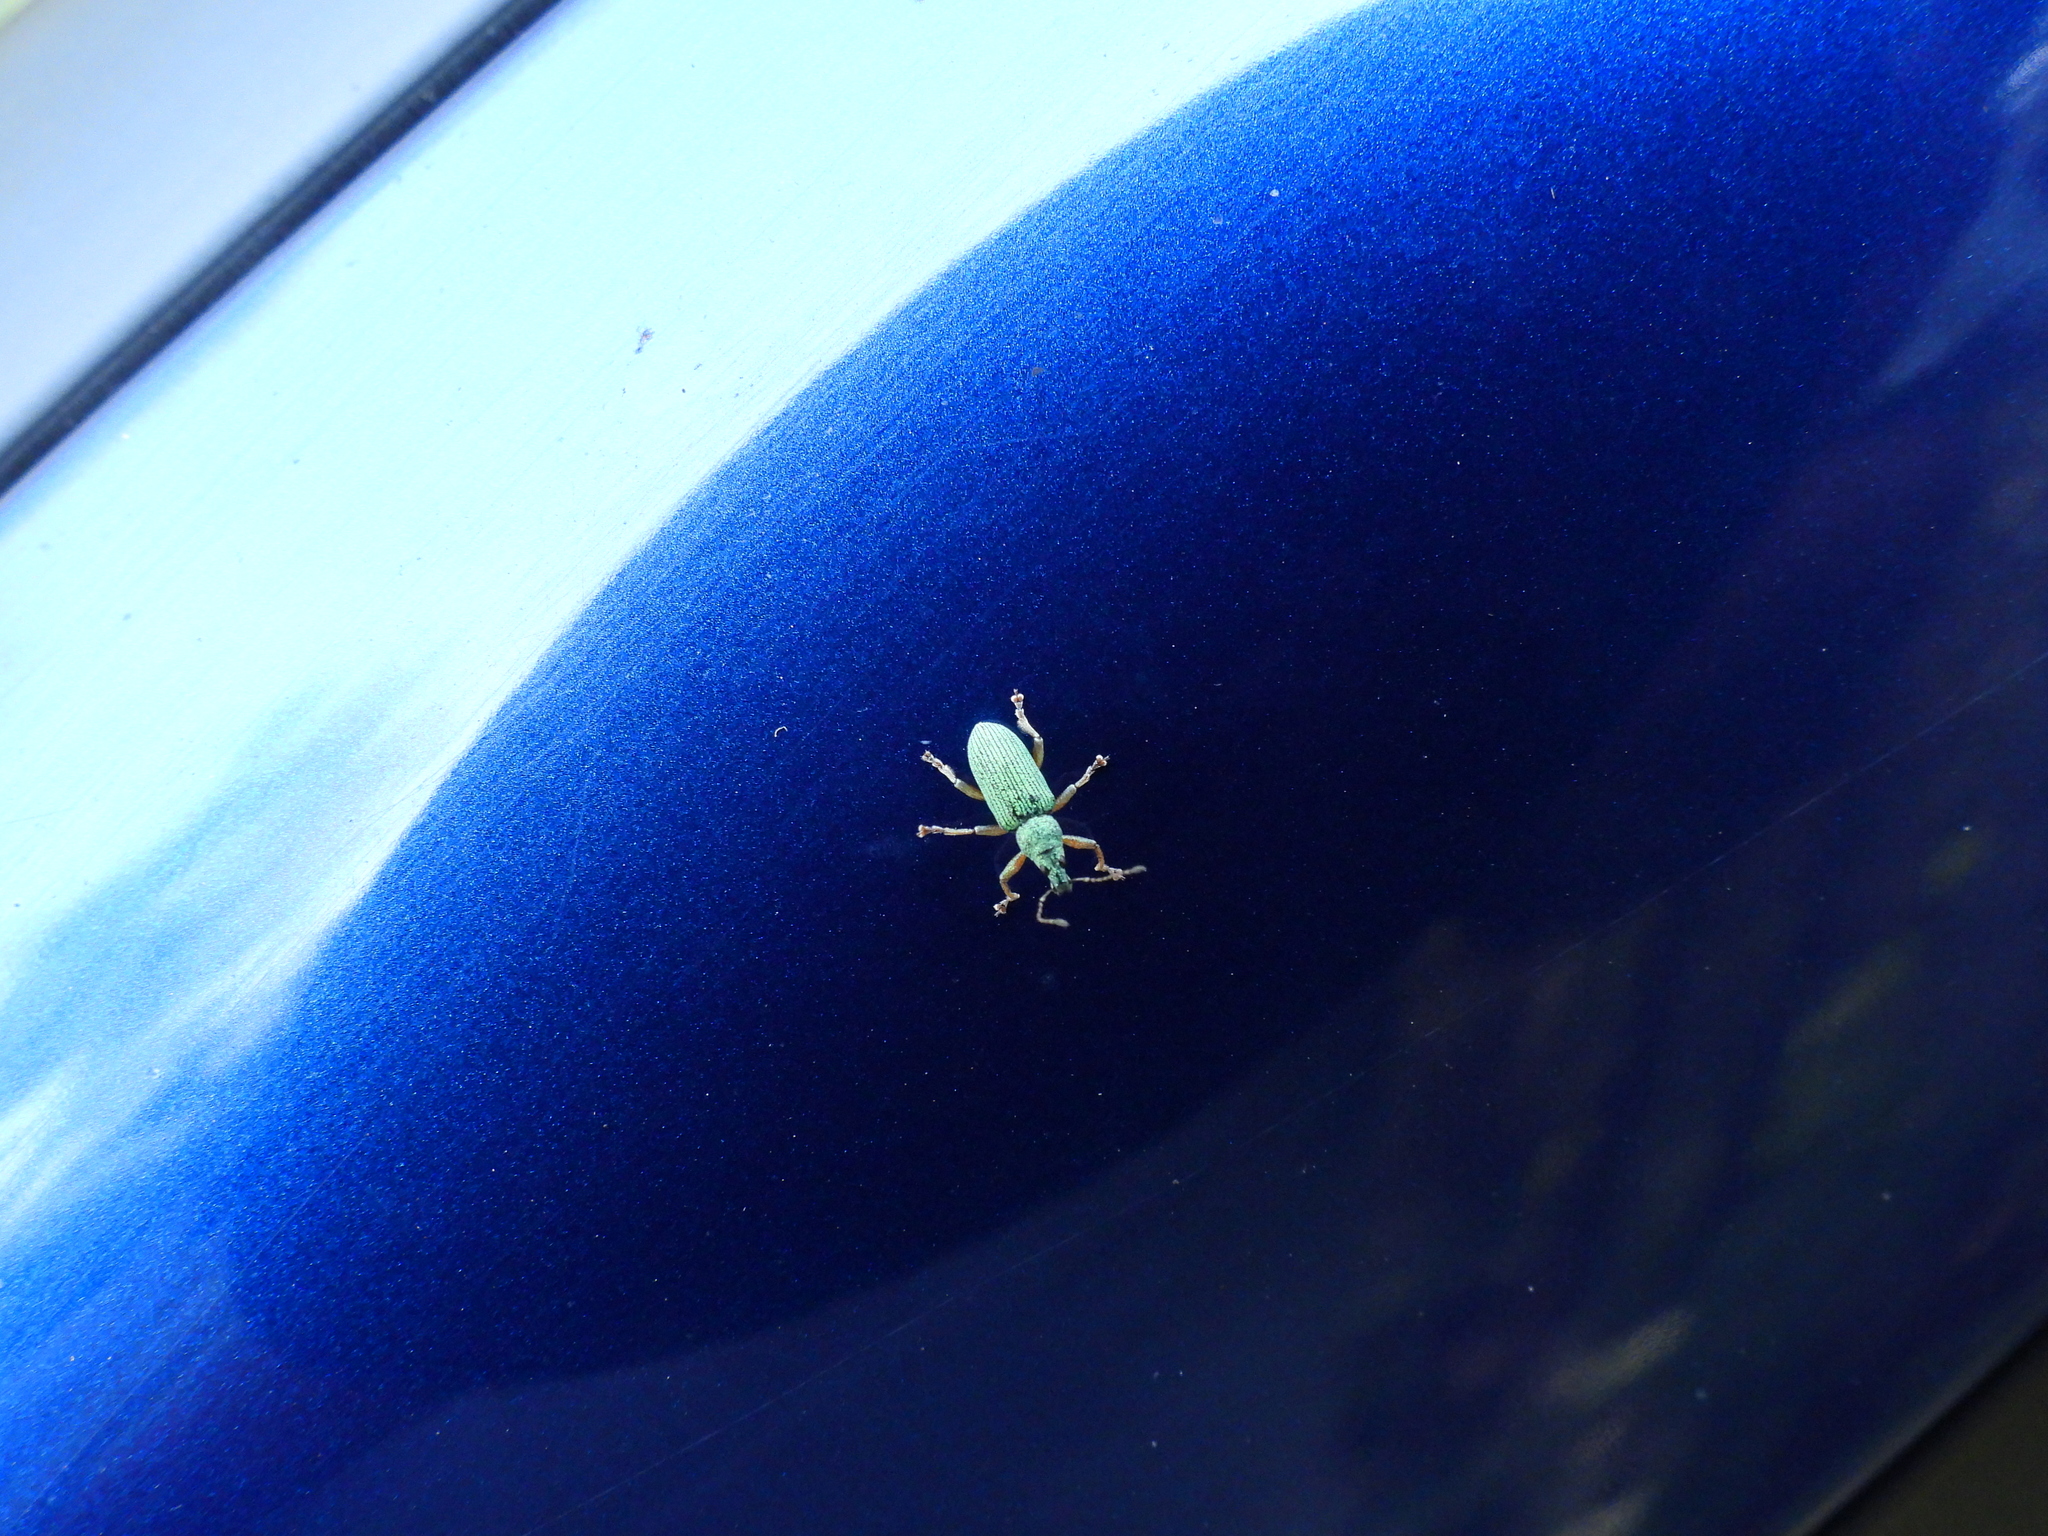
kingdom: Animalia
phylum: Arthropoda
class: Insecta
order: Coleoptera
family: Curculionidae
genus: Polydrusus
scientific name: Polydrusus formosus
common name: Weevil
